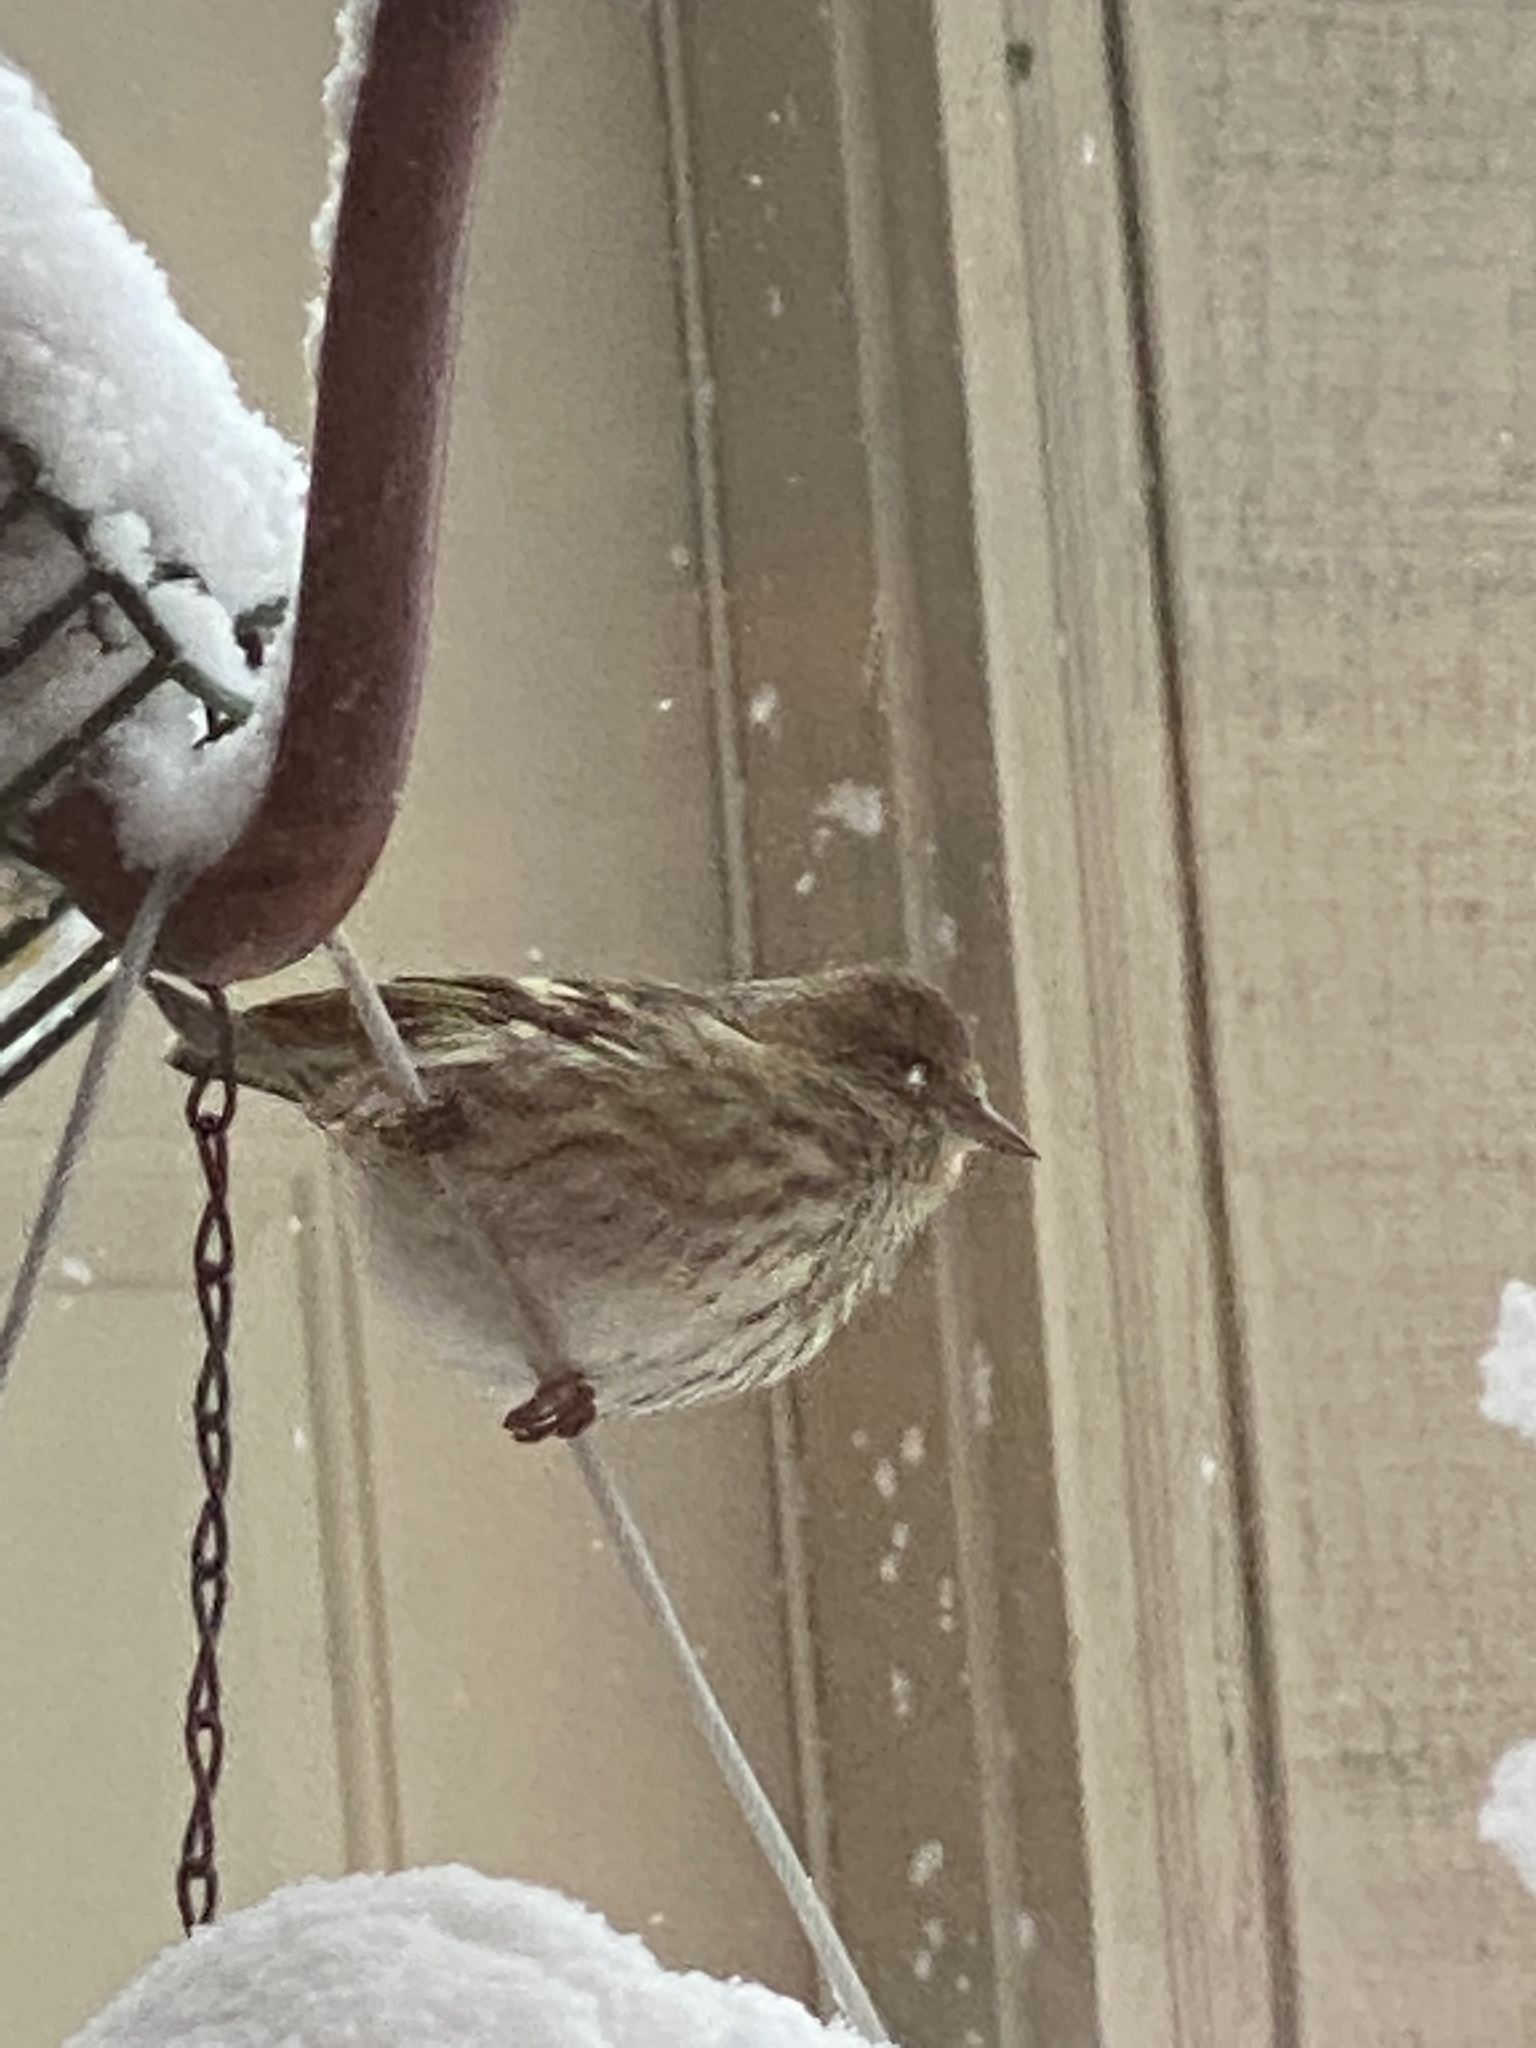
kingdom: Animalia
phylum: Chordata
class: Aves
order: Passeriformes
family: Fringillidae
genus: Spinus
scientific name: Spinus pinus
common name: Pine siskin
